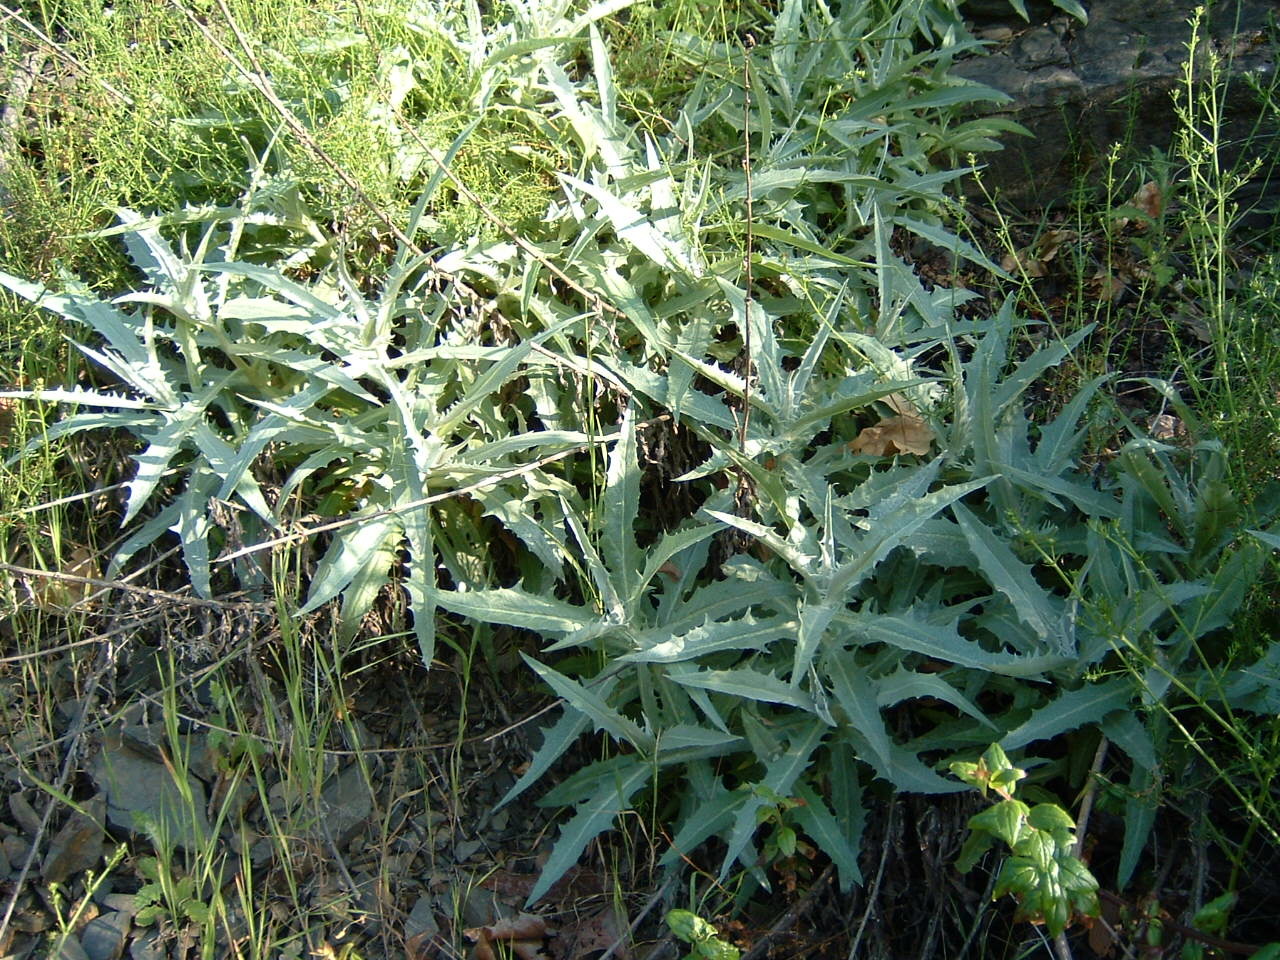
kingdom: Plantae
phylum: Tracheophyta
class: Magnoliopsida
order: Asterales
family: Asteraceae
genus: Stephanomeria
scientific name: Stephanomeria cichoriacea
